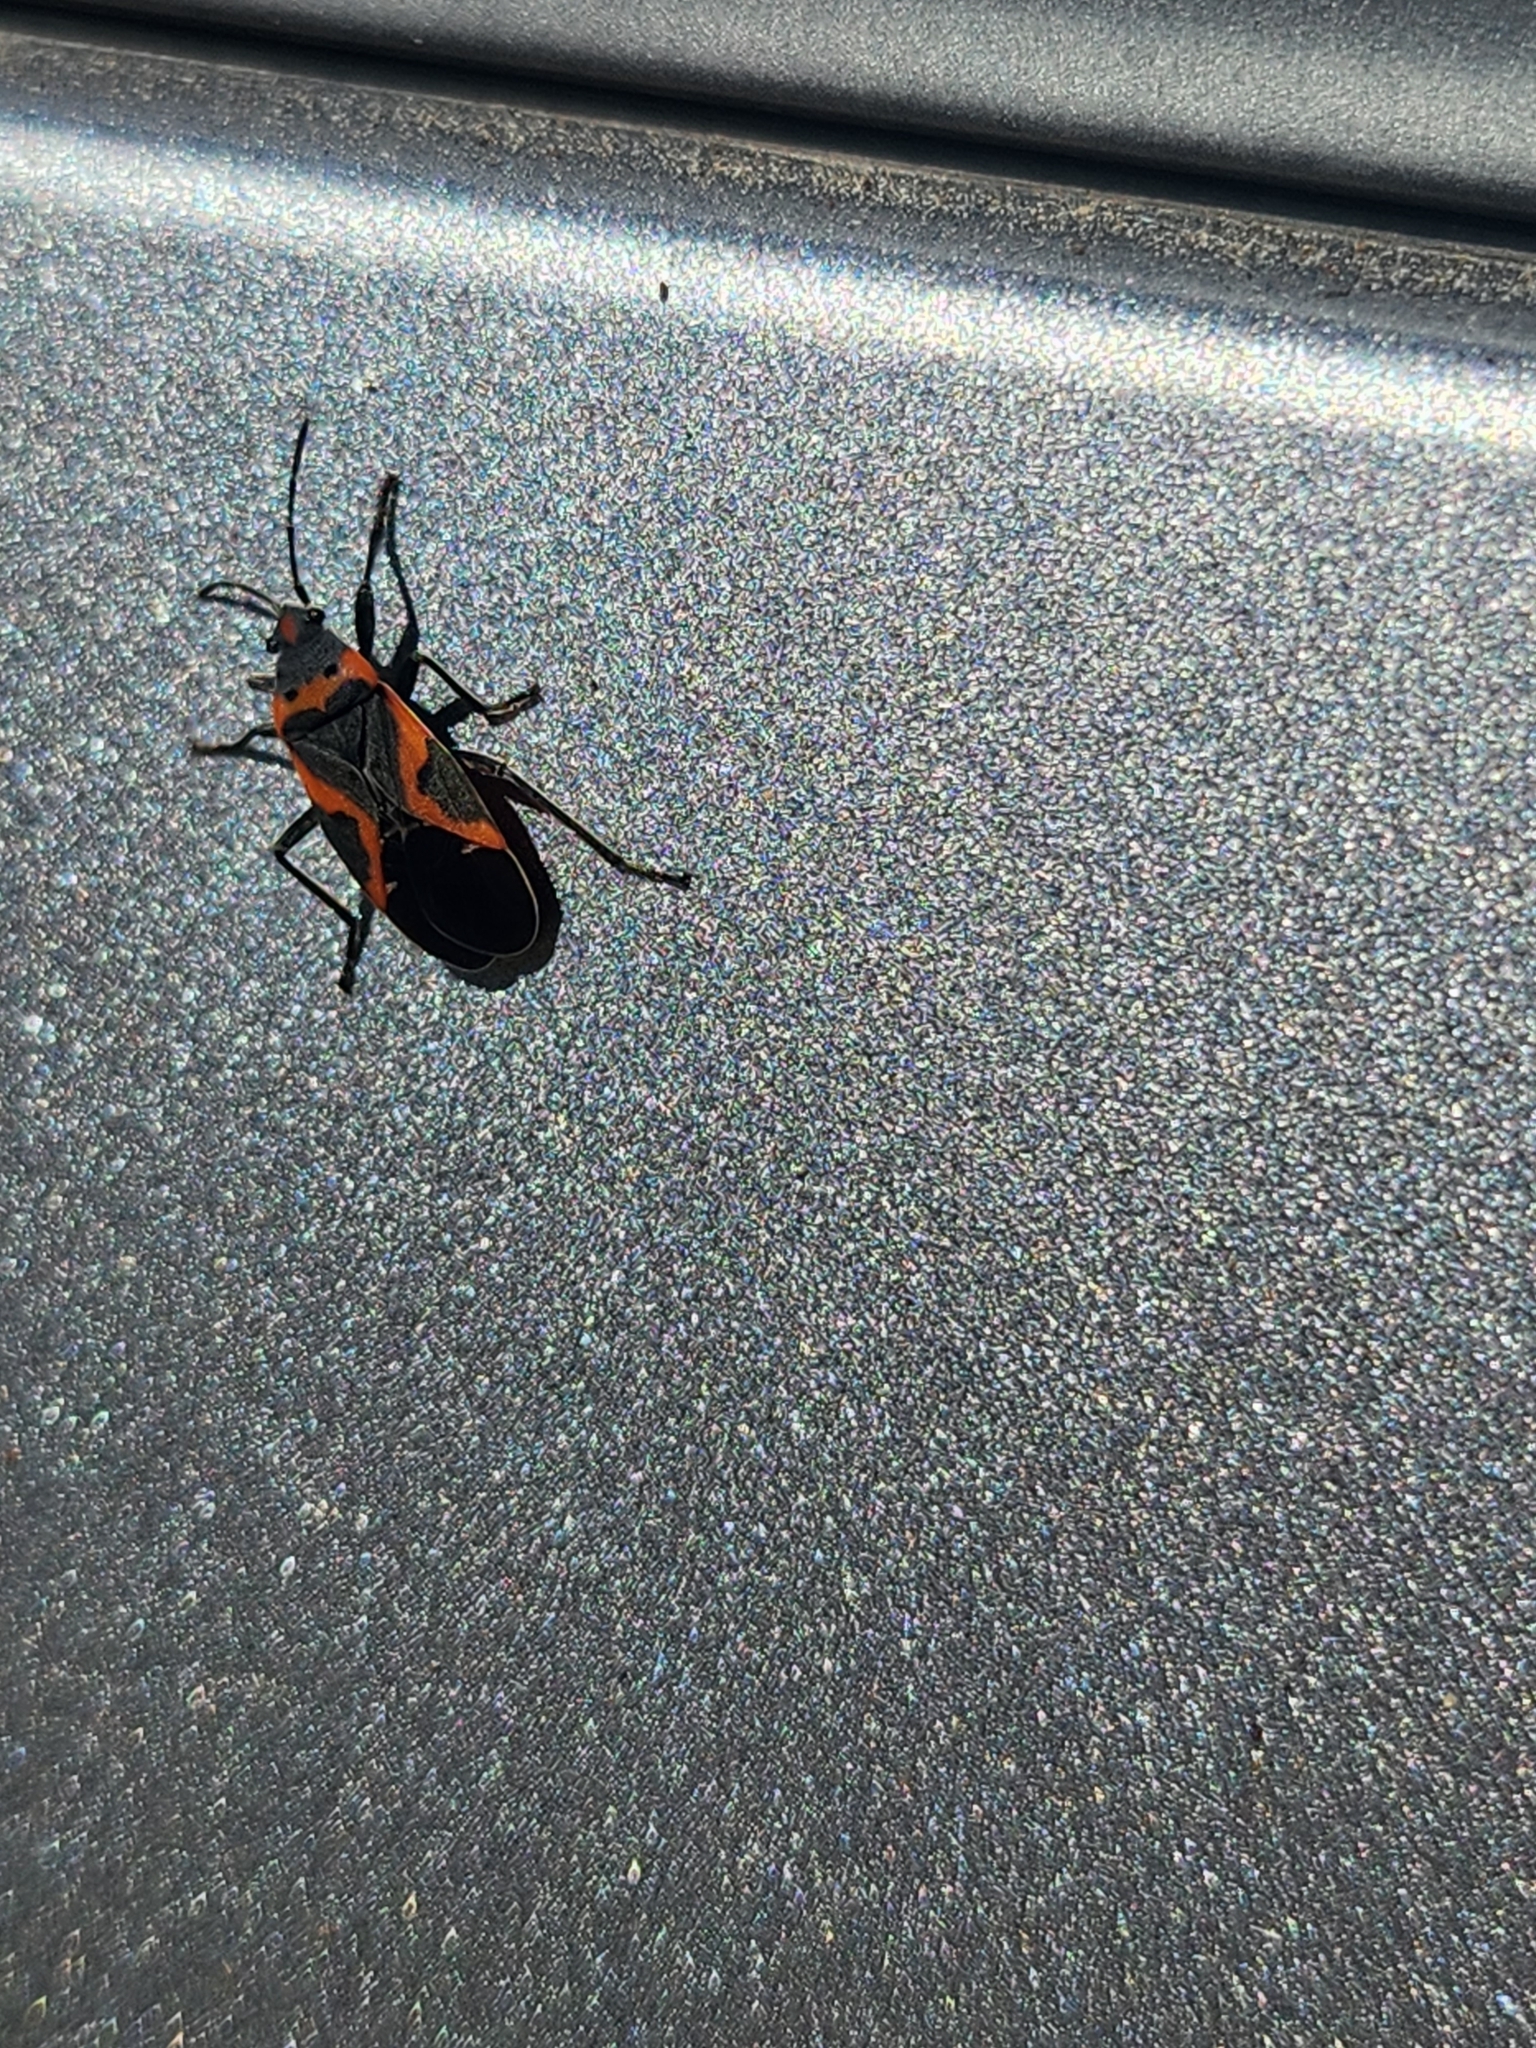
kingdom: Animalia
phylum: Arthropoda
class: Insecta
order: Hemiptera
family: Lygaeidae
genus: Lygaeus
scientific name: Lygaeus kalmii
